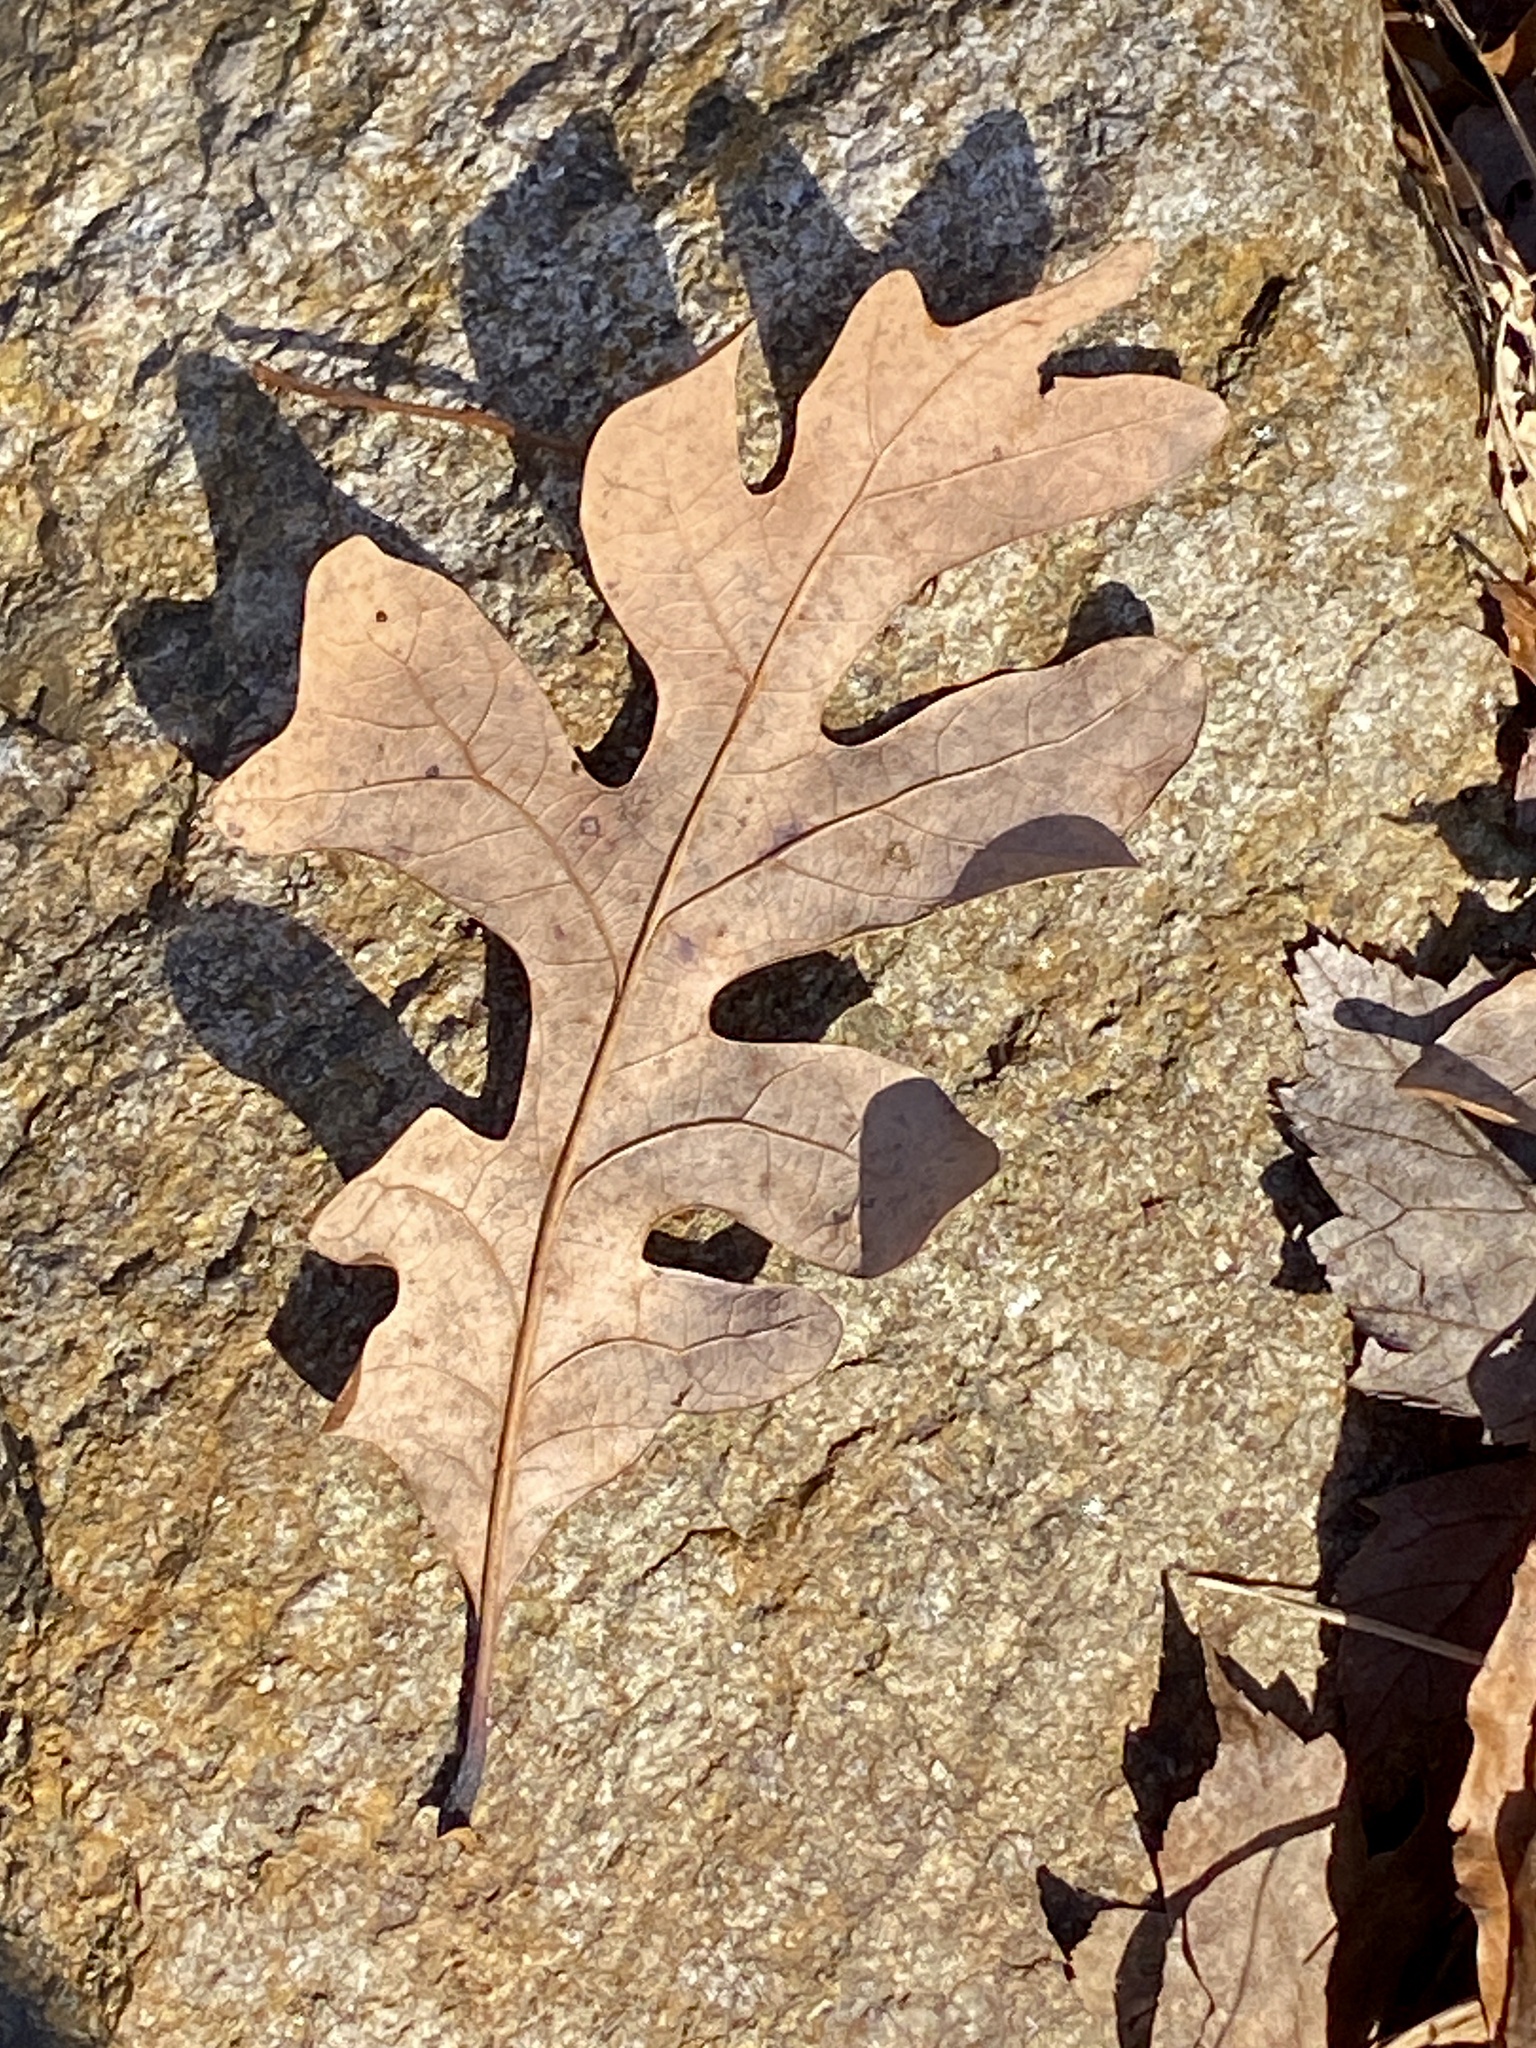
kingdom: Plantae
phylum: Tracheophyta
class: Magnoliopsida
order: Fagales
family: Fagaceae
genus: Quercus
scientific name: Quercus alba
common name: White oak
